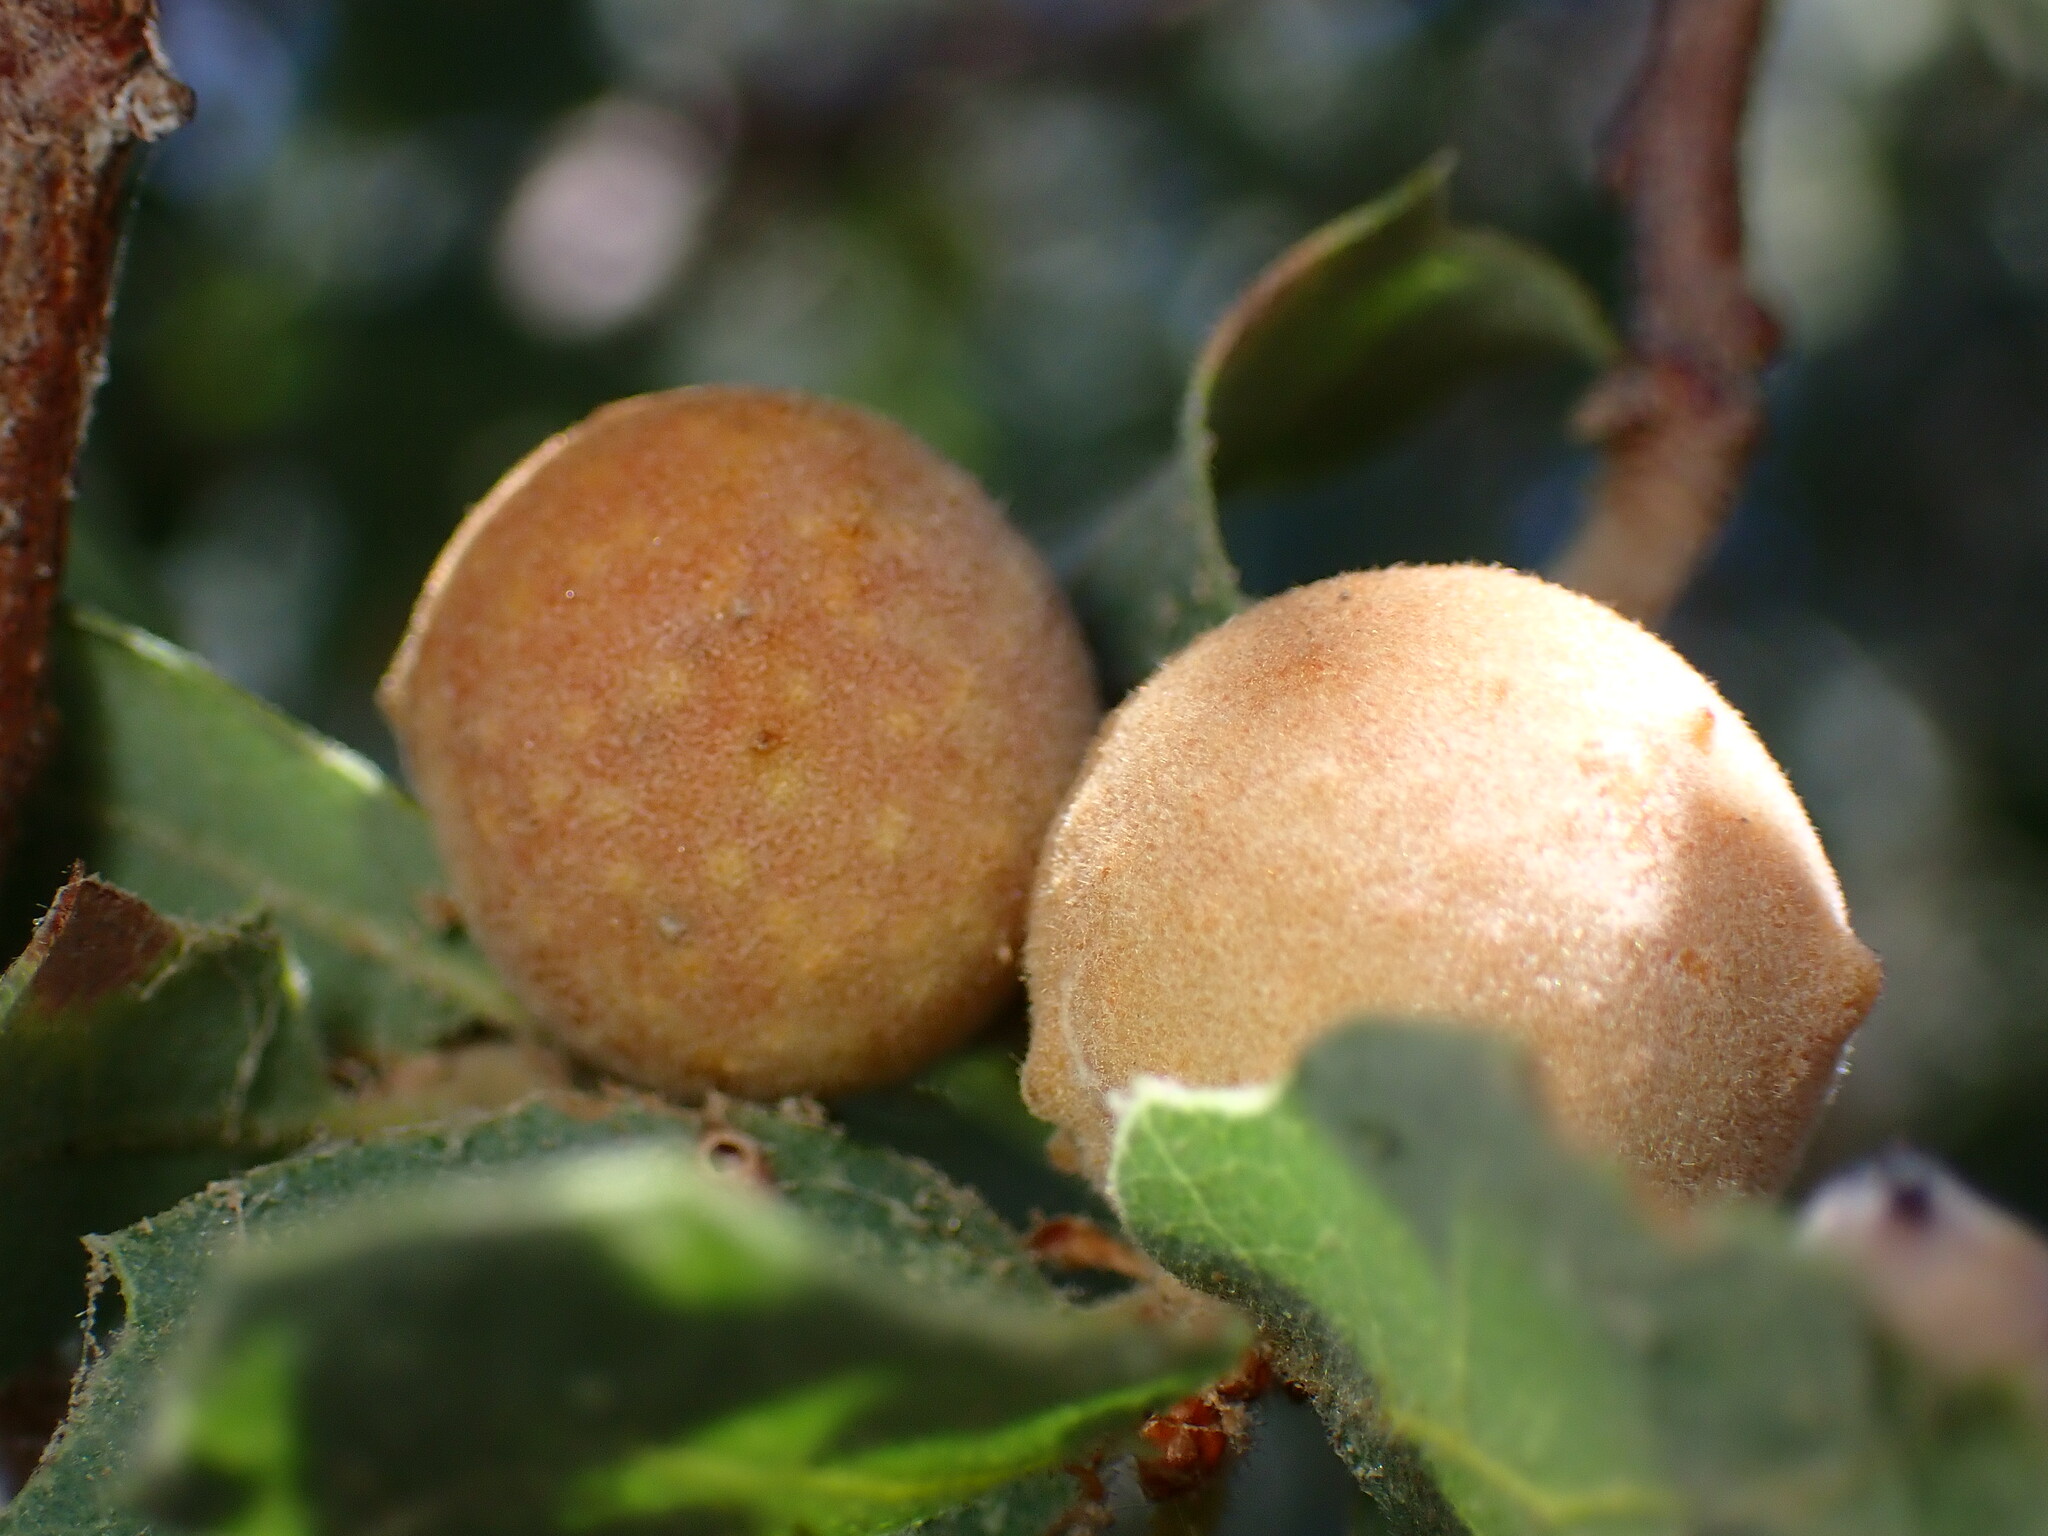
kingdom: Animalia
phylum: Arthropoda
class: Insecta
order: Hymenoptera
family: Cynipidae
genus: Burnettweldia
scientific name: Burnettweldia
